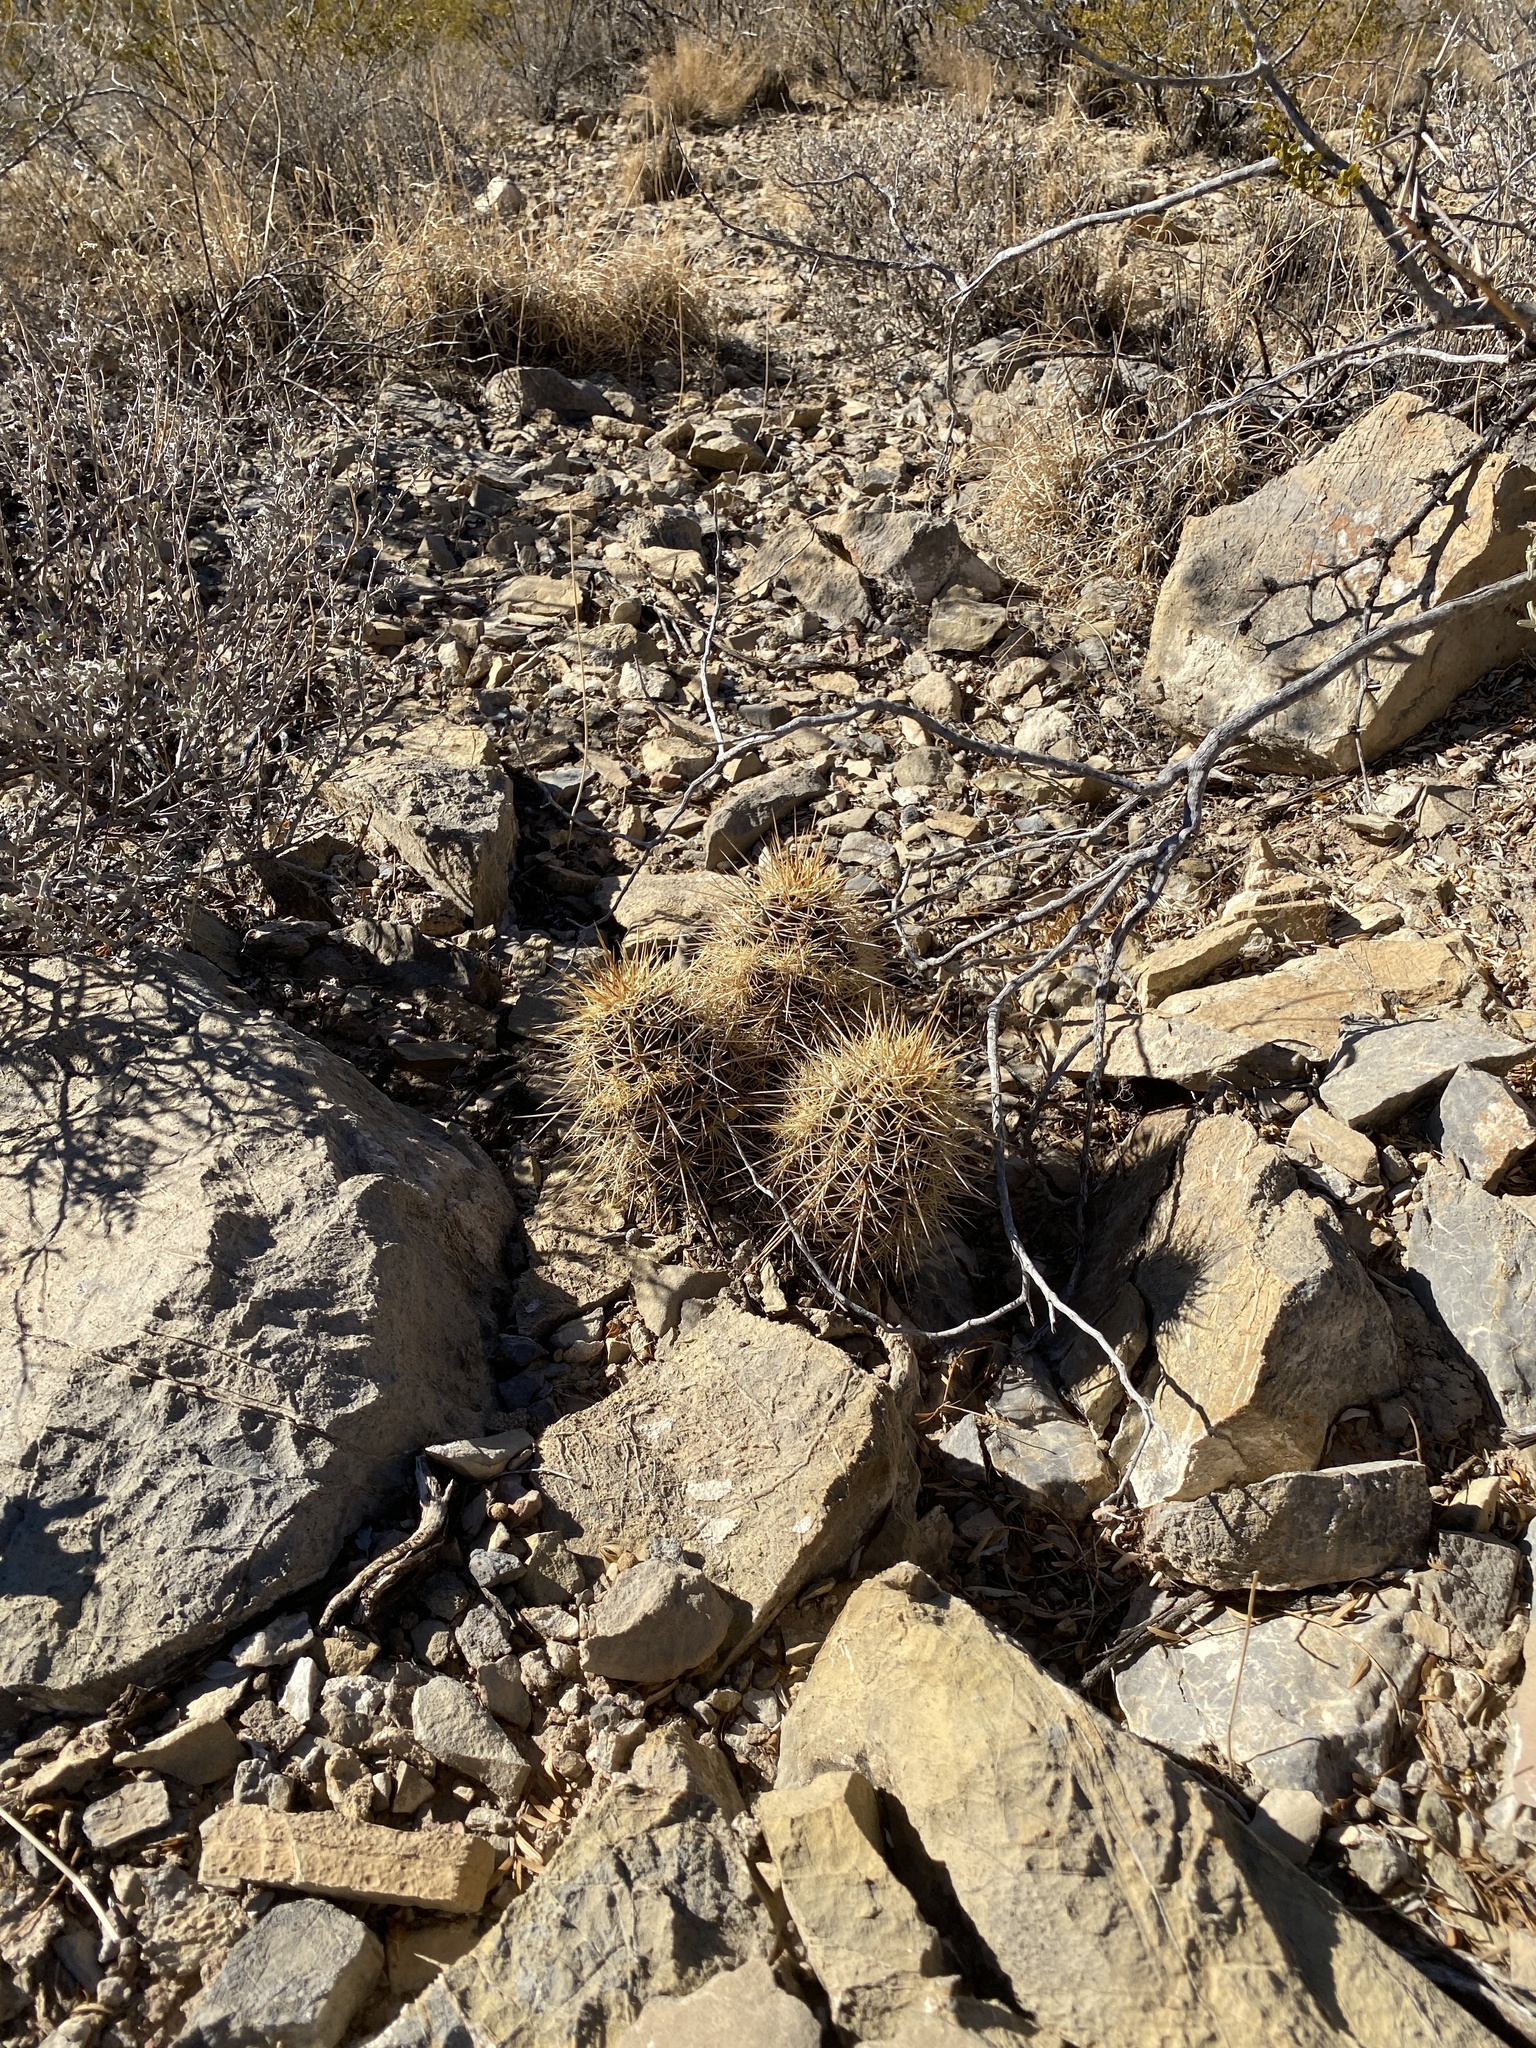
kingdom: Plantae
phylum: Tracheophyta
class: Magnoliopsida
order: Caryophyllales
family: Cactaceae
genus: Echinocereus
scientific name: Echinocereus coccineus
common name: Scarlet hedgehog cactus
